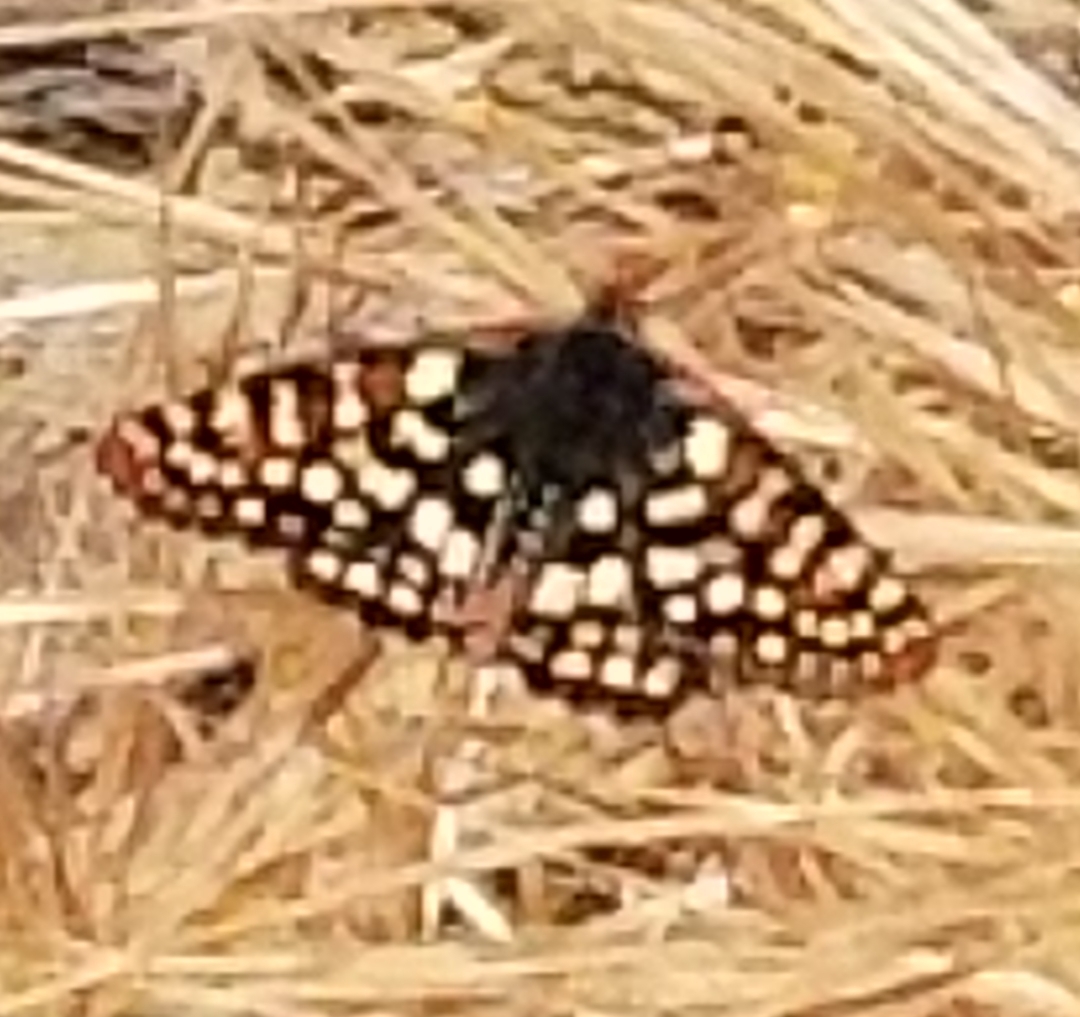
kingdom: Animalia
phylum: Arthropoda
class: Insecta
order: Lepidoptera
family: Nymphalidae
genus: Occidryas
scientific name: Occidryas chalcedona
